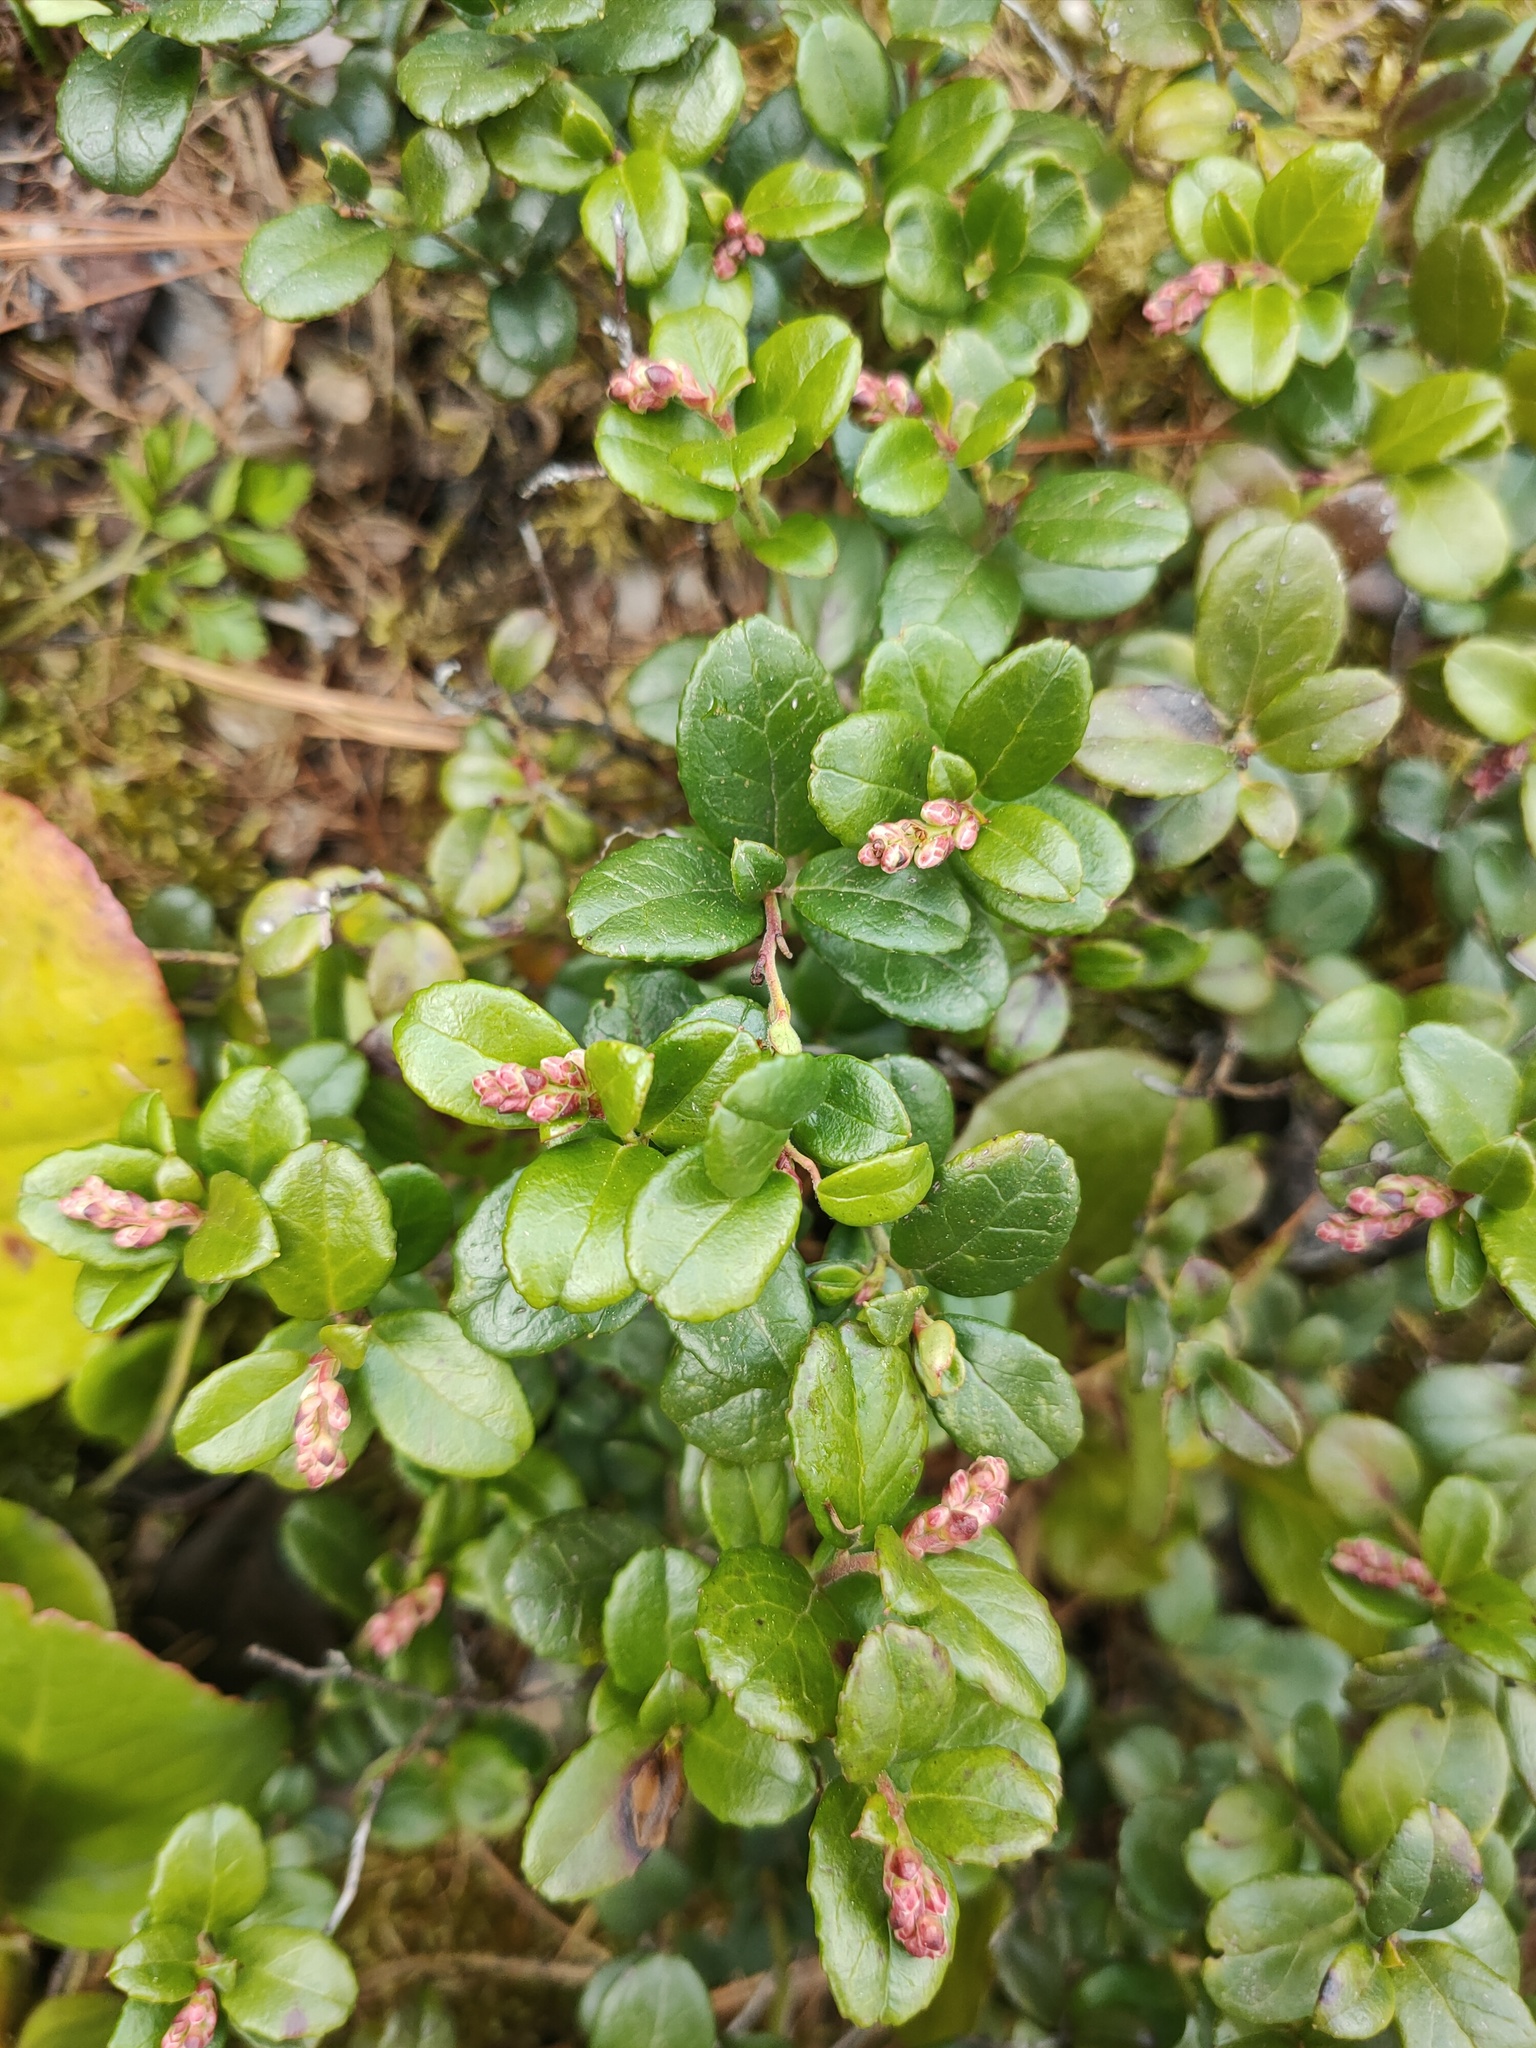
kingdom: Plantae
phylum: Tracheophyta
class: Magnoliopsida
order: Ericales
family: Ericaceae
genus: Vaccinium
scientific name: Vaccinium vitis-idaea
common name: Cowberry
